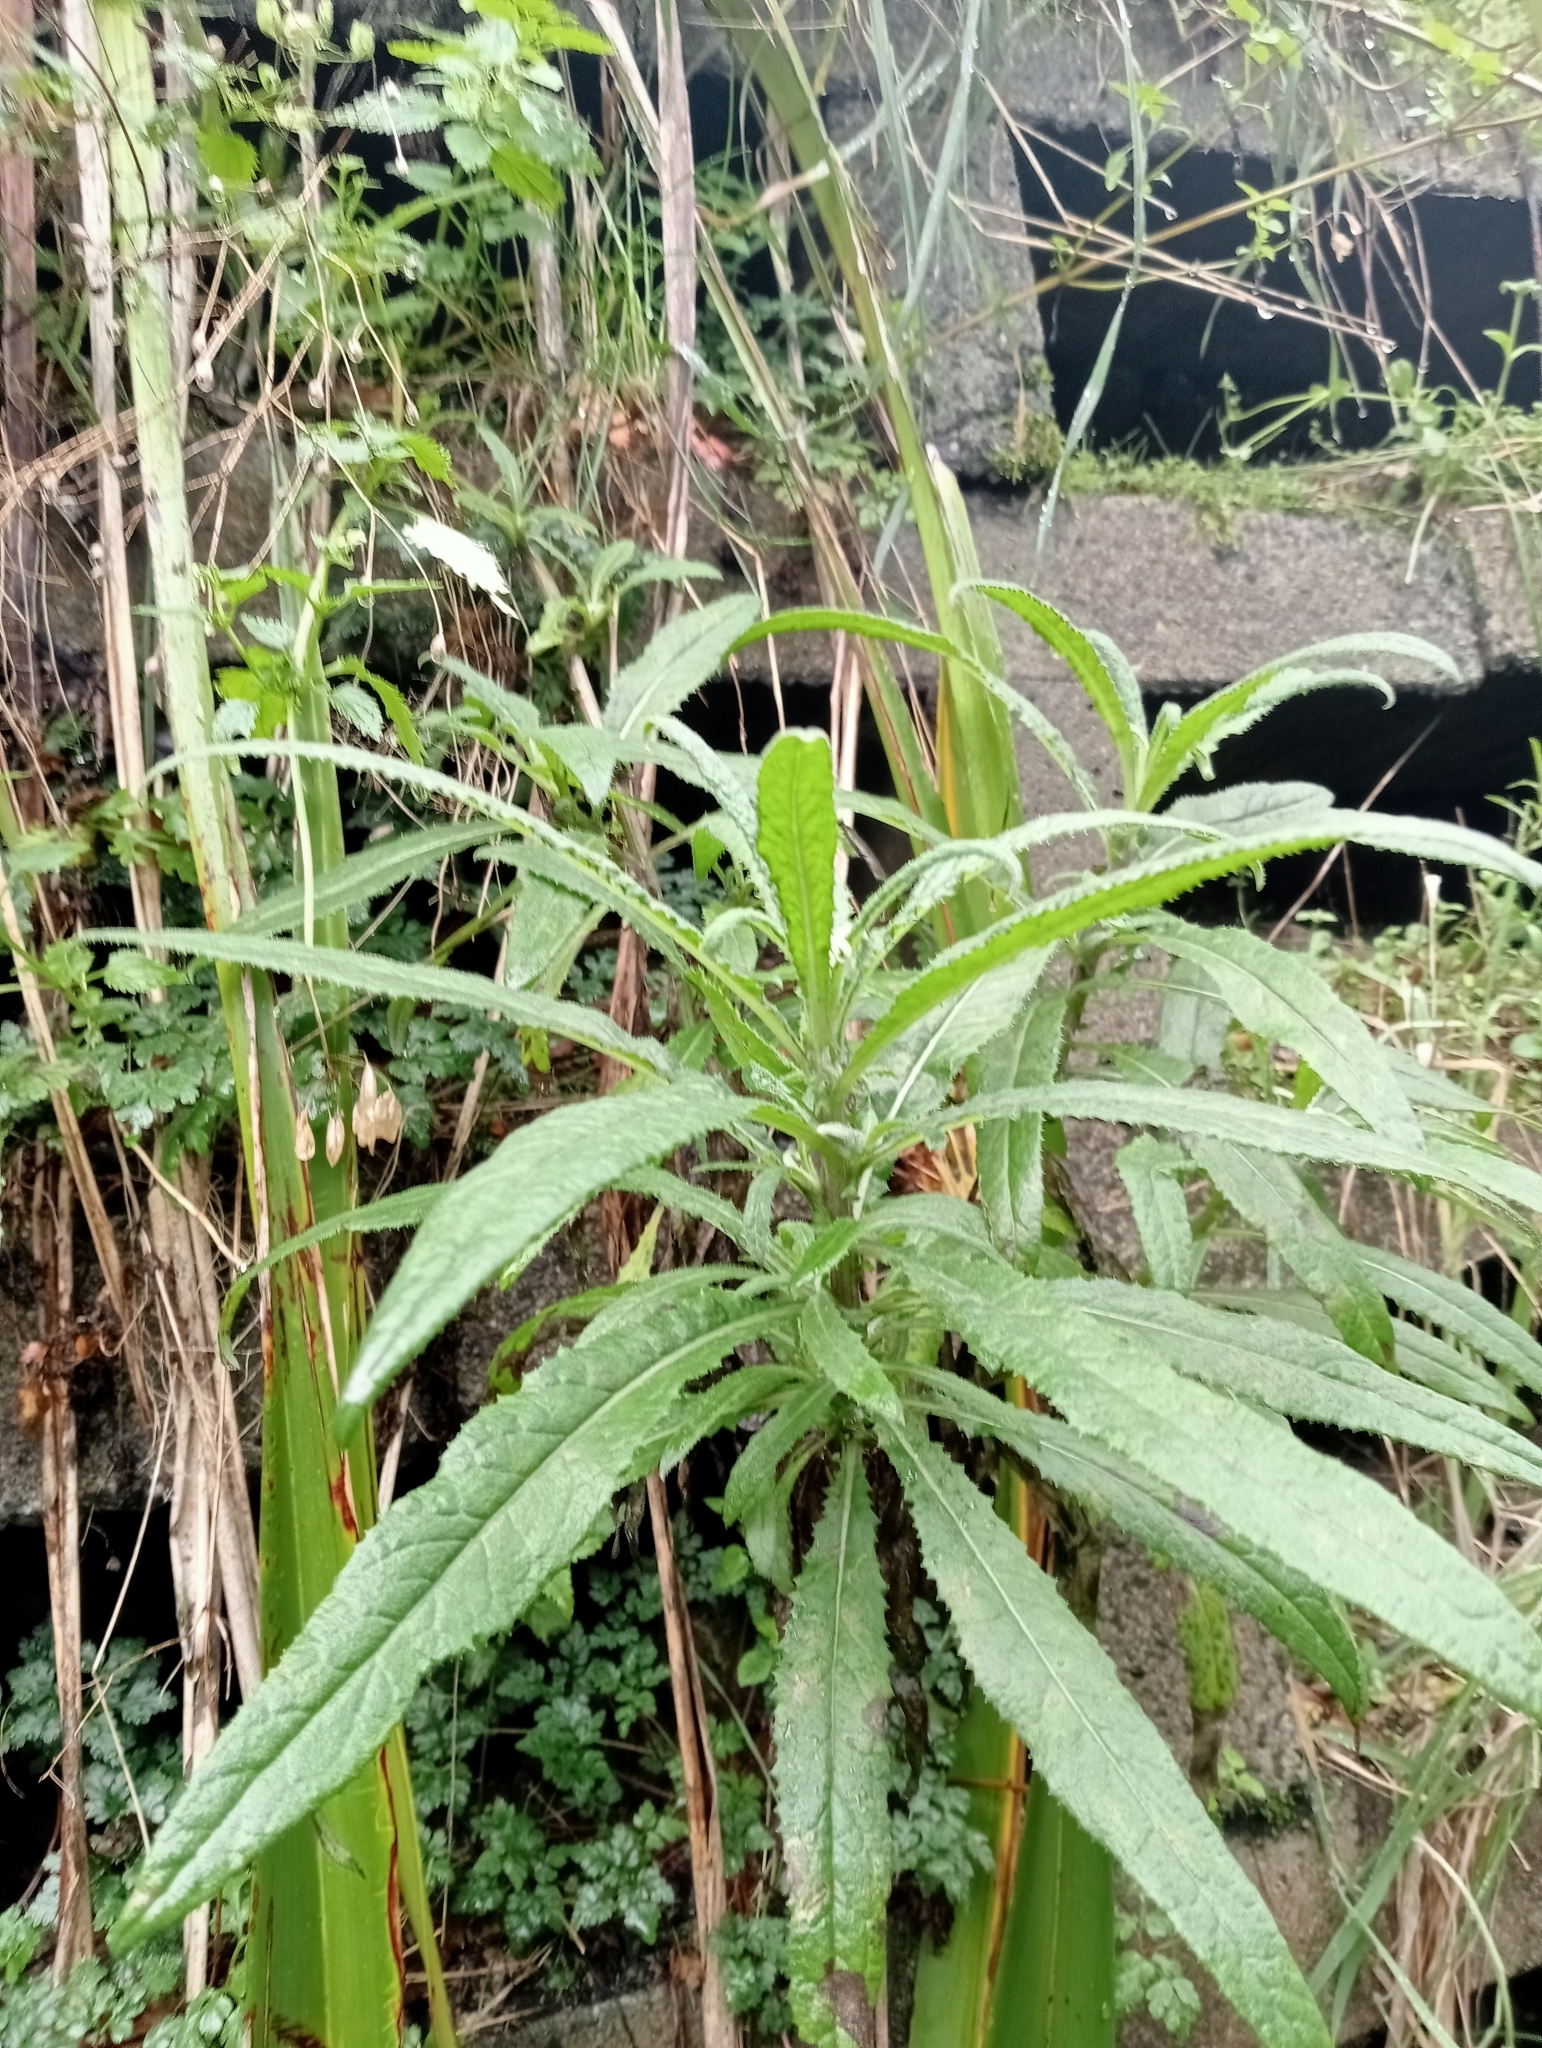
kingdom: Plantae
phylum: Tracheophyta
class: Magnoliopsida
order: Asterales
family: Asteraceae
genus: Senecio
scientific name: Senecio minimus
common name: Toothed fireweed
